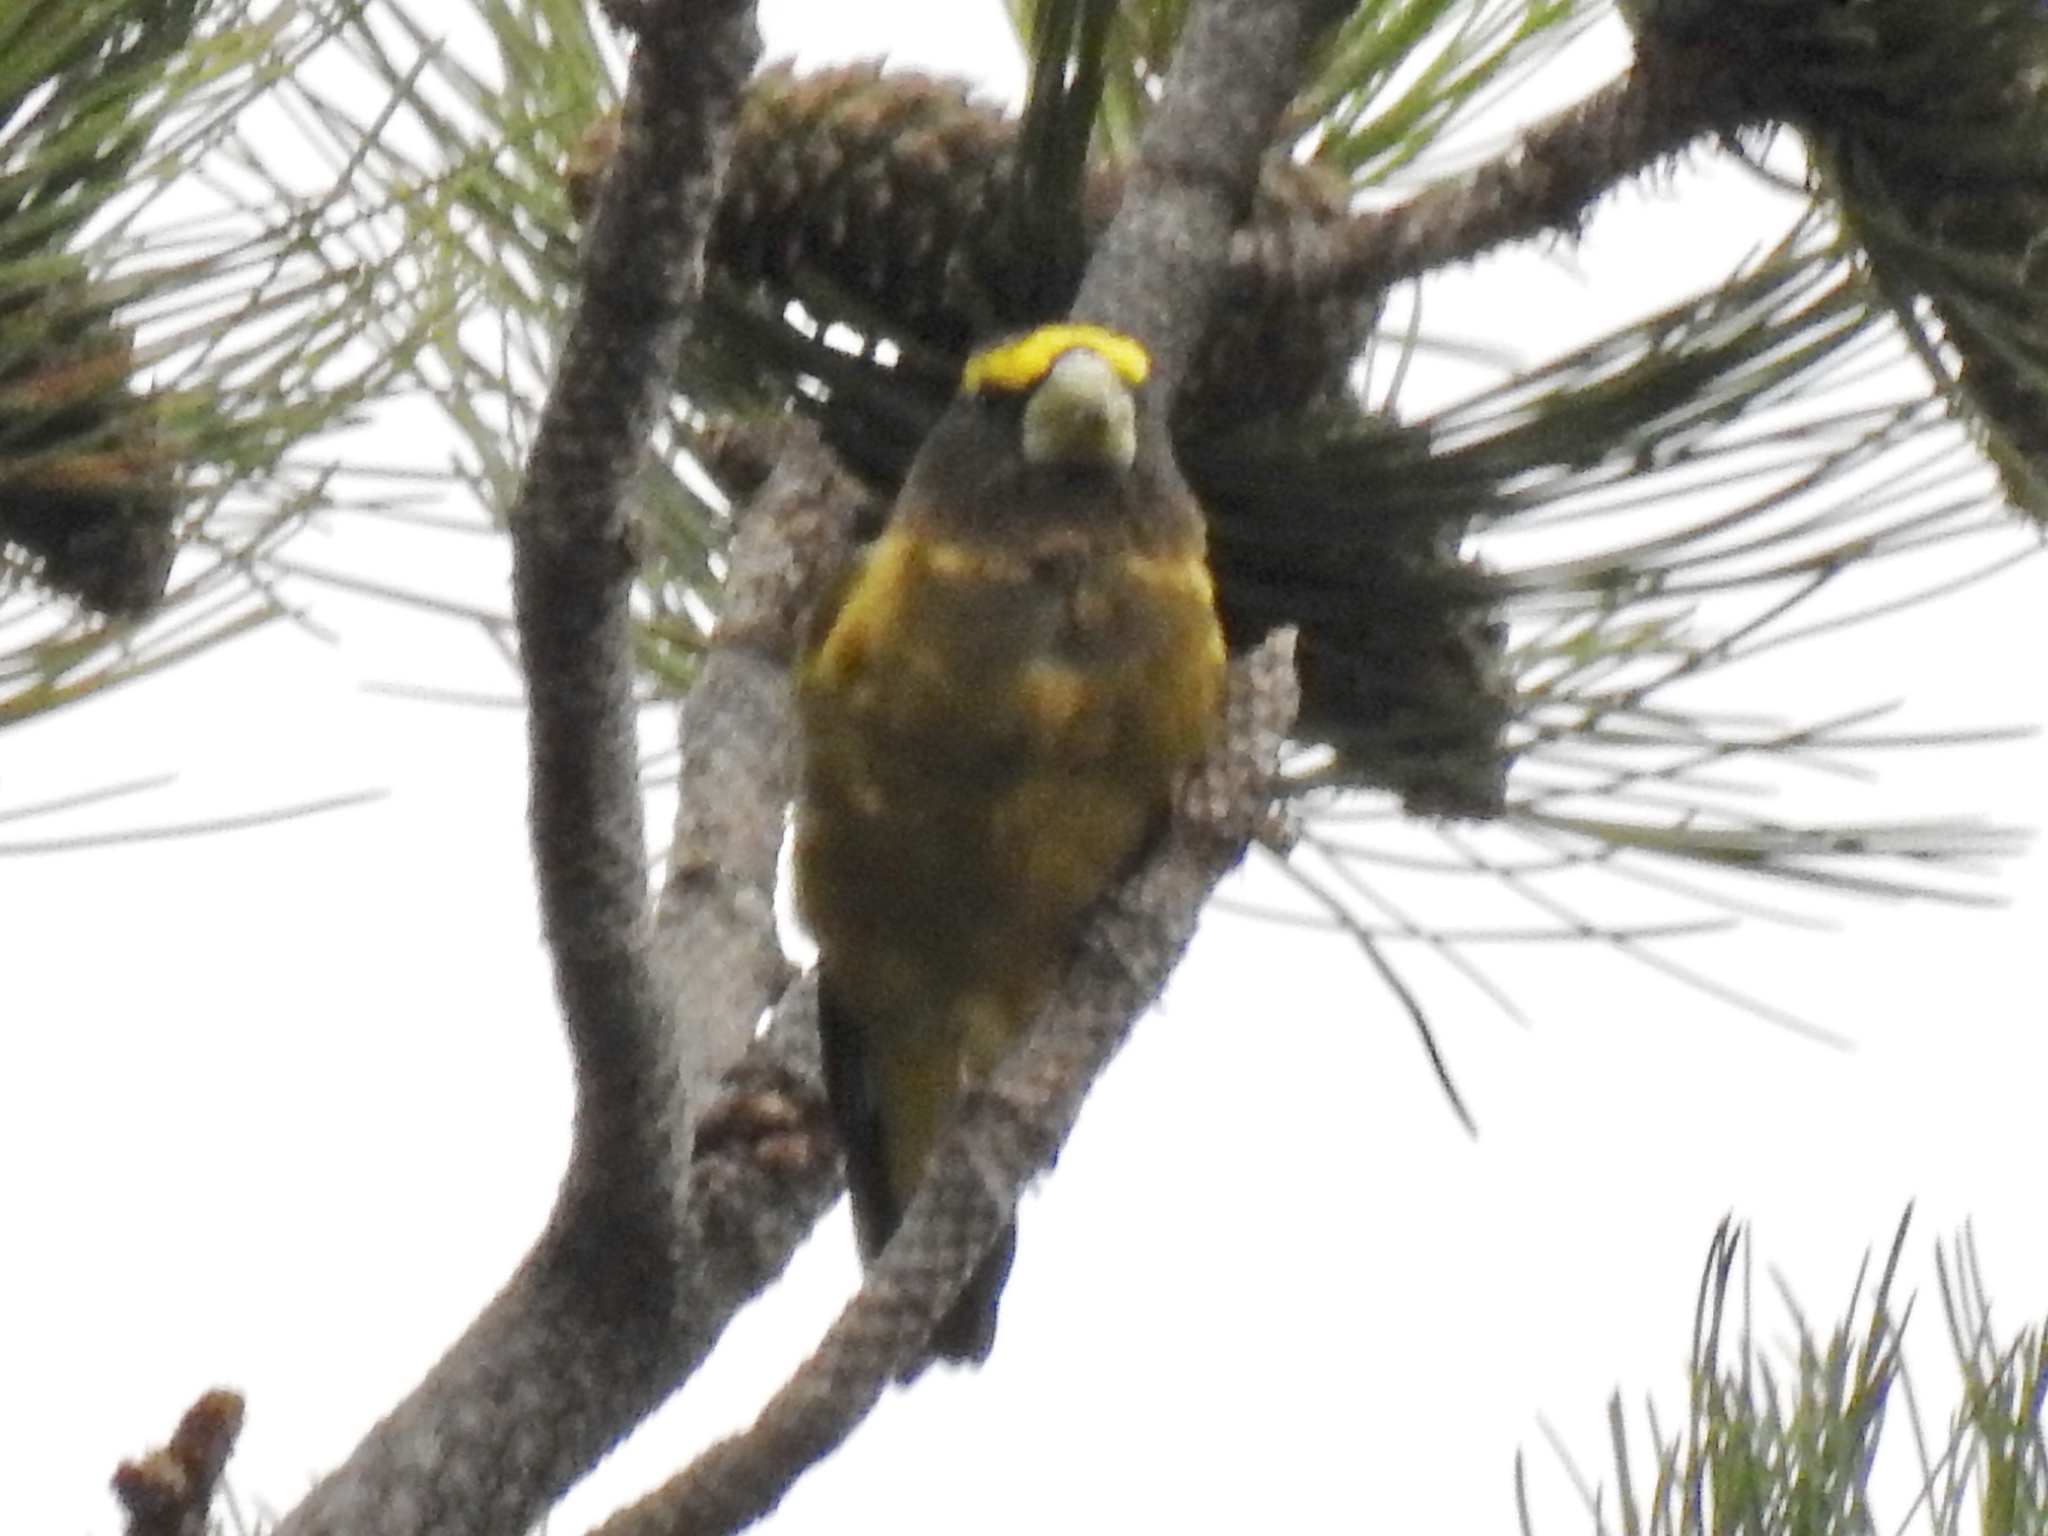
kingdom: Animalia
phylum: Chordata
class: Aves
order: Passeriformes
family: Fringillidae
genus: Hesperiphona
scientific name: Hesperiphona vespertina
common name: Evening grosbeak
